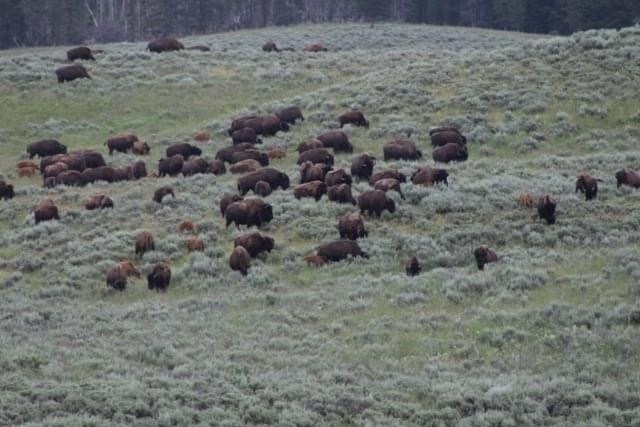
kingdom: Animalia
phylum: Chordata
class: Mammalia
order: Artiodactyla
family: Bovidae
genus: Bison
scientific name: Bison bison
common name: American bison
